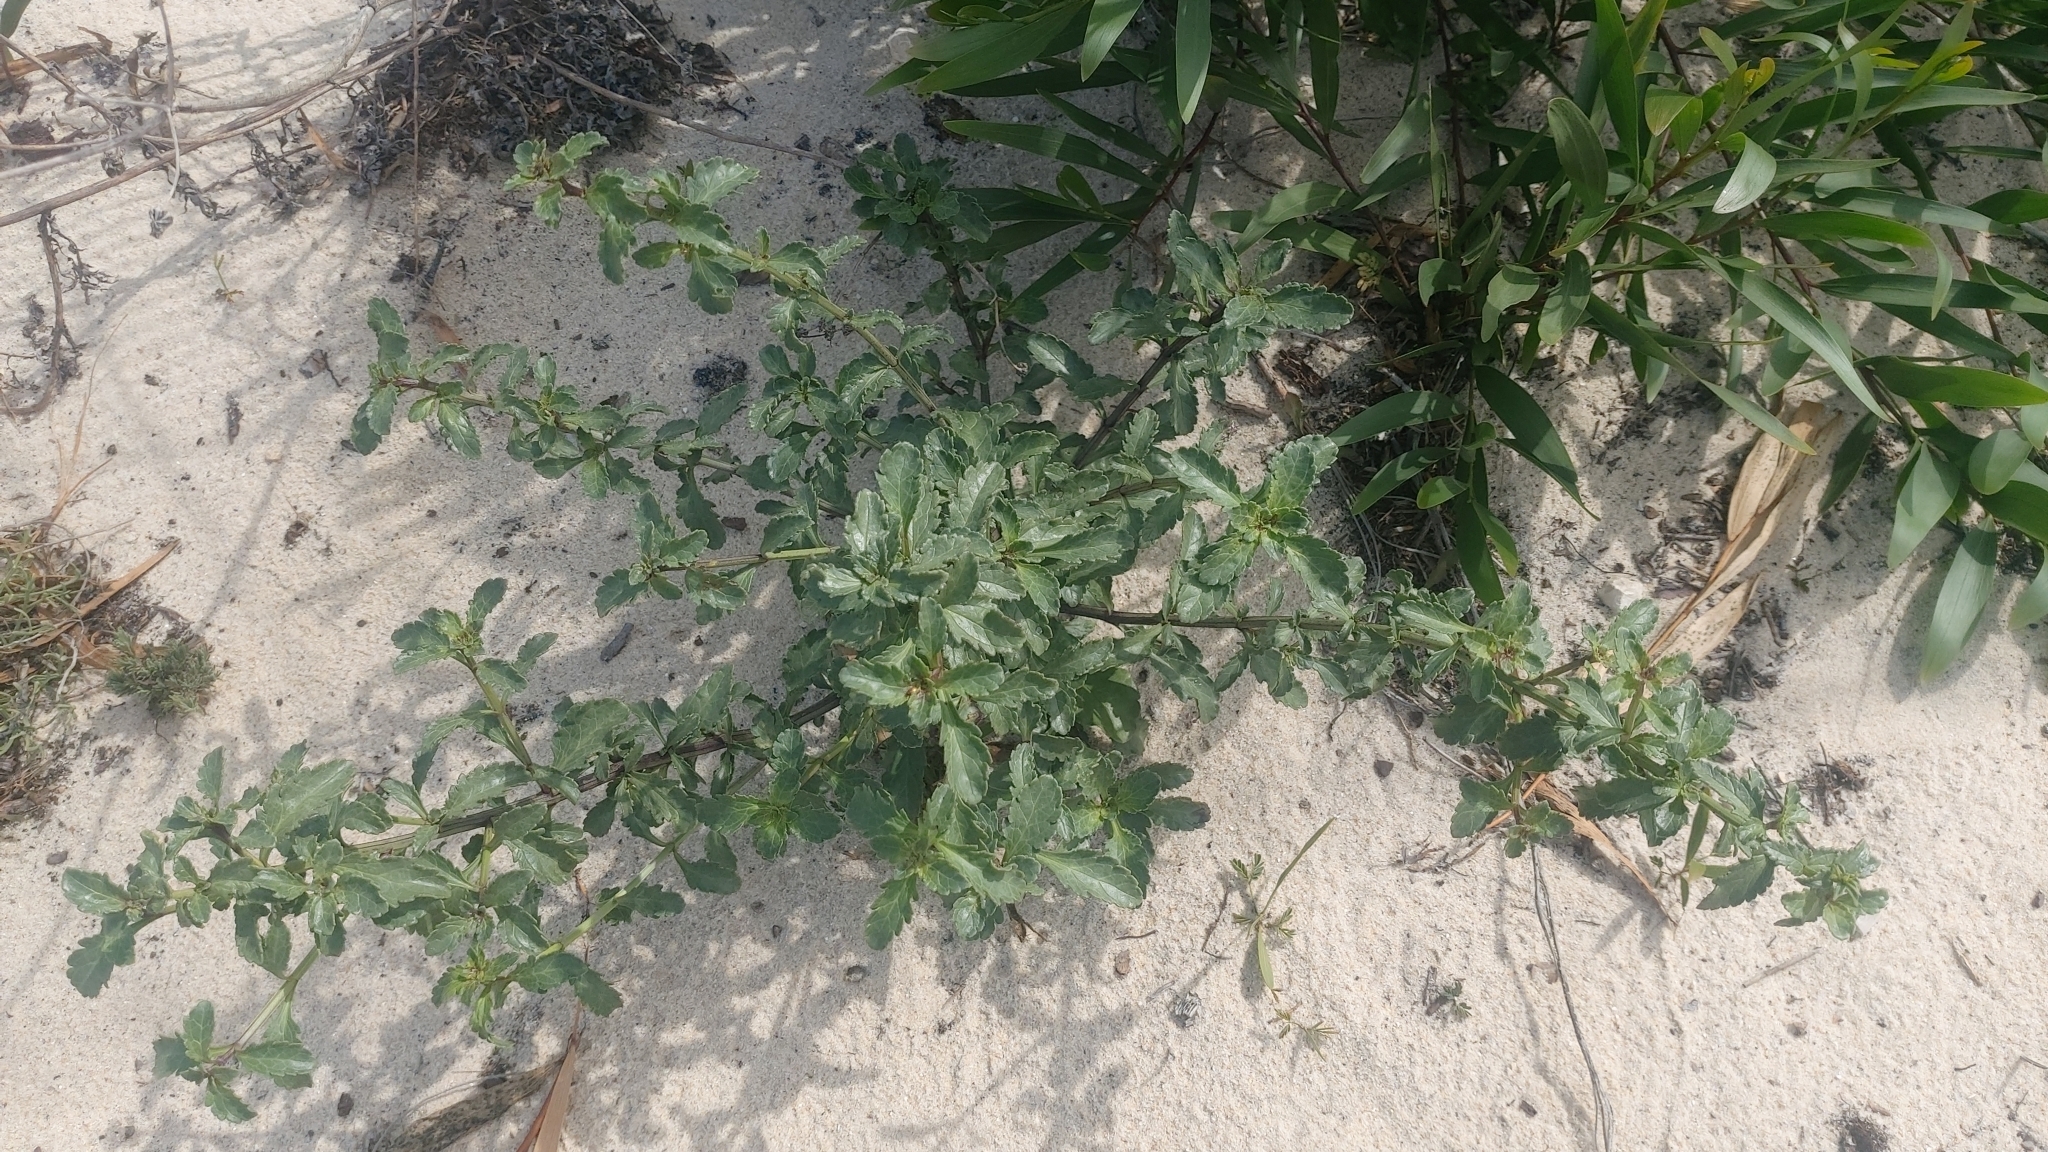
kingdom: Plantae
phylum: Tracheophyta
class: Magnoliopsida
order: Lamiales
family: Scrophulariaceae
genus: Scrophularia
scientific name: Scrophularia frutescens
